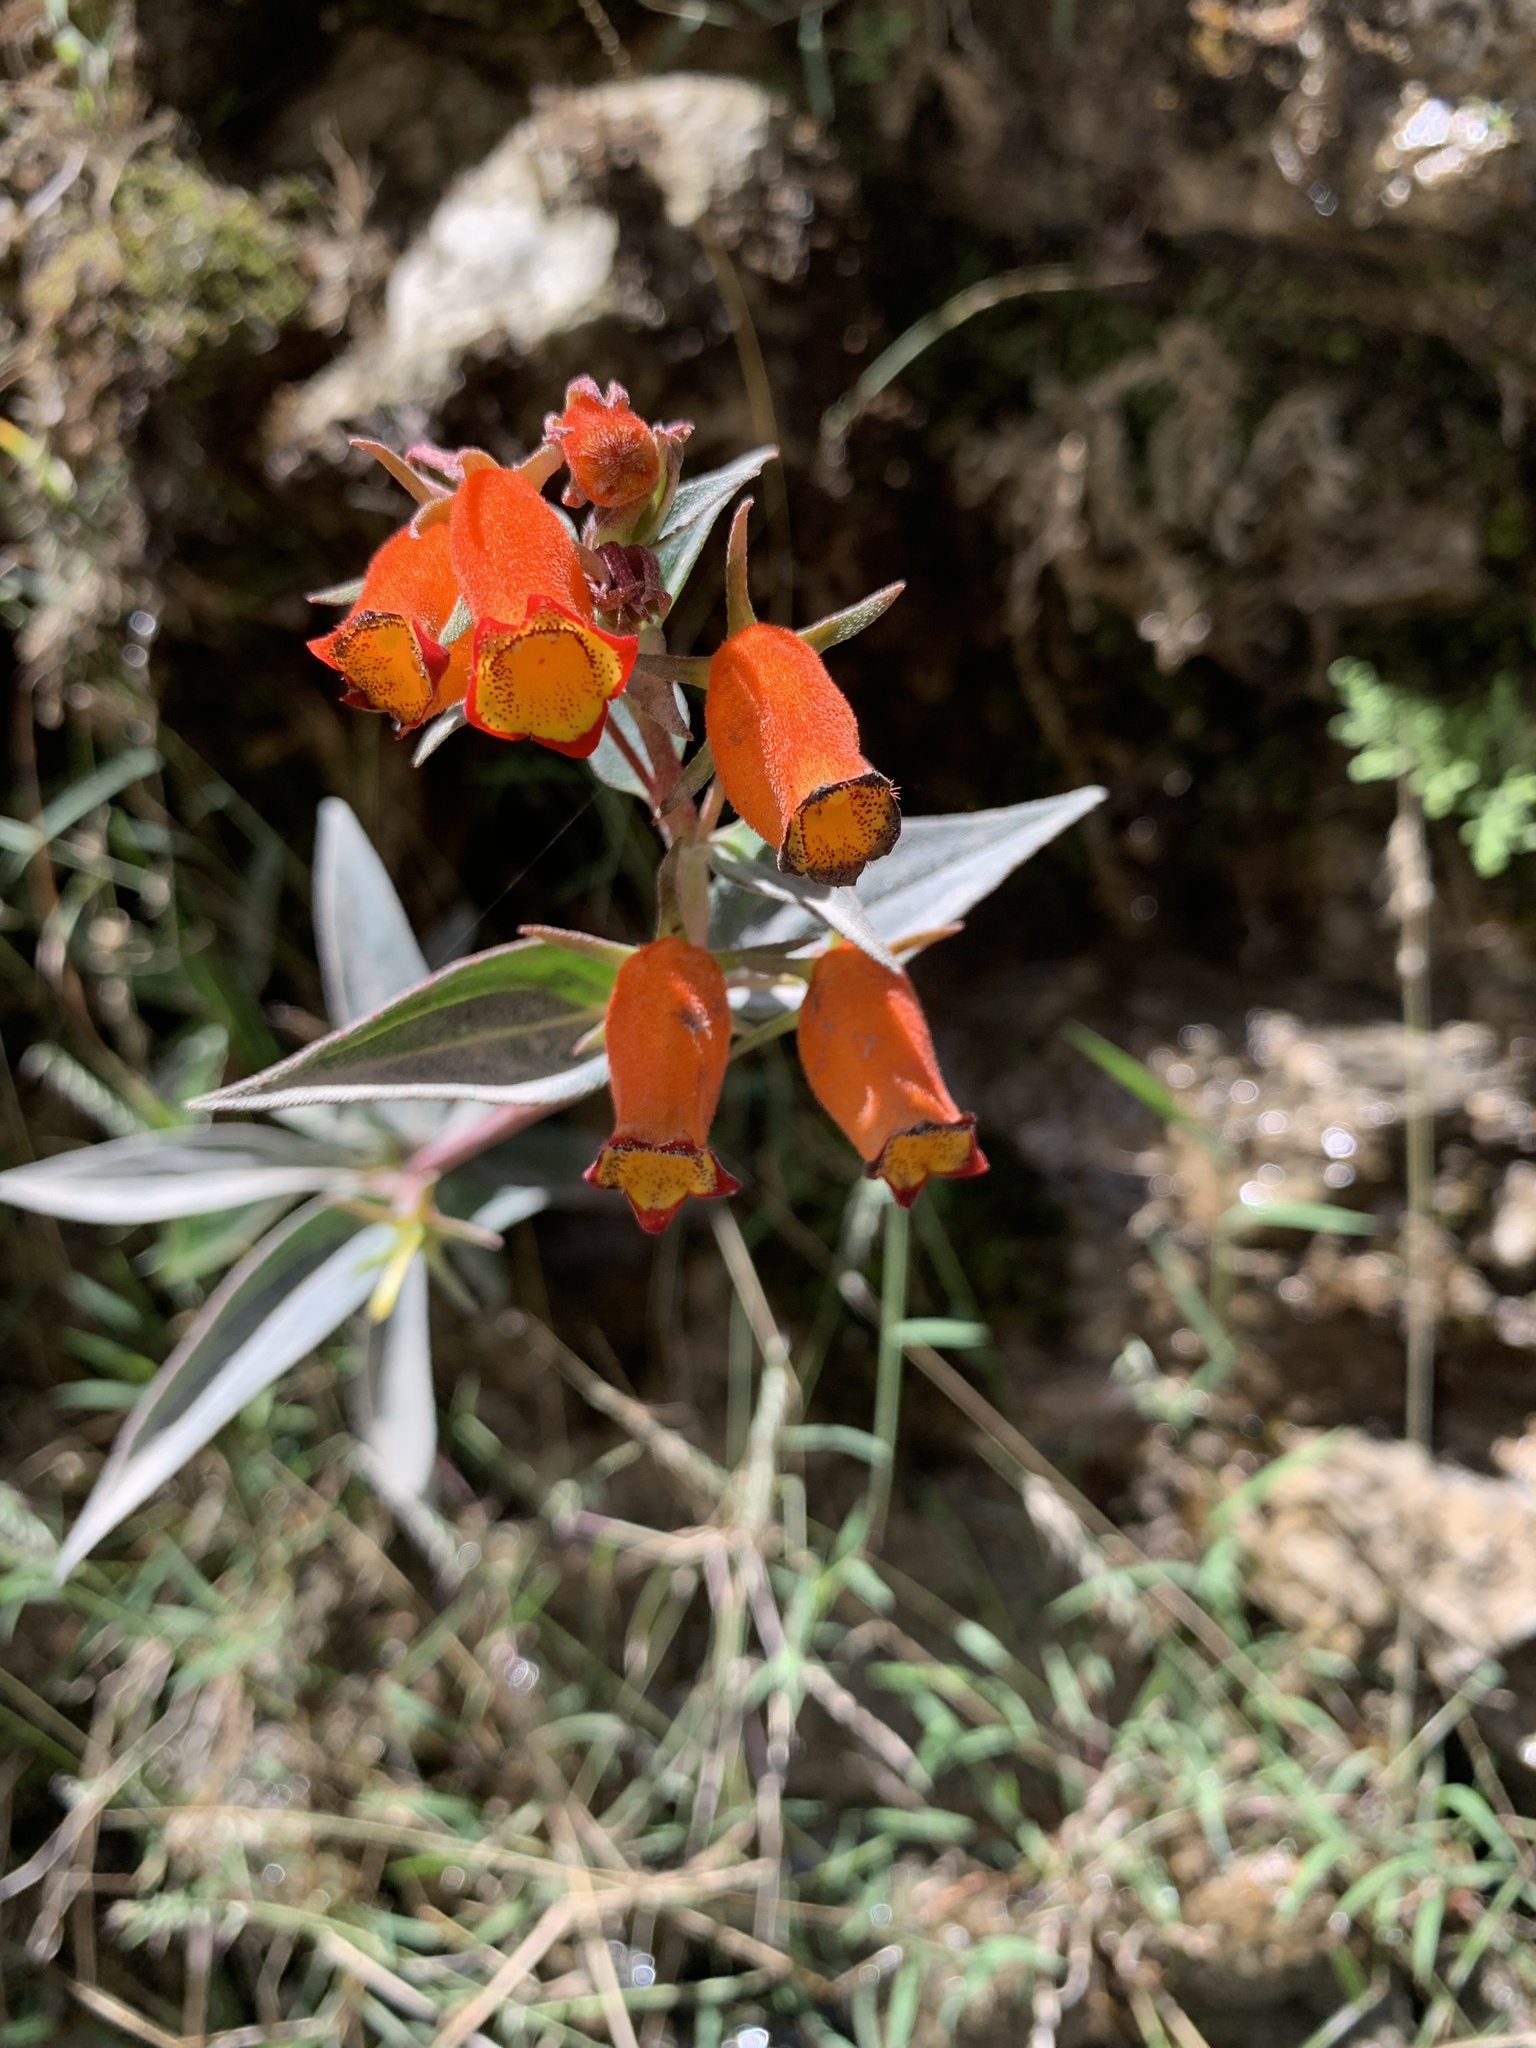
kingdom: Plantae
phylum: Tracheophyta
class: Magnoliopsida
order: Lamiales
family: Gesneriaceae
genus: Seemannia
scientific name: Seemannia sylvatica
